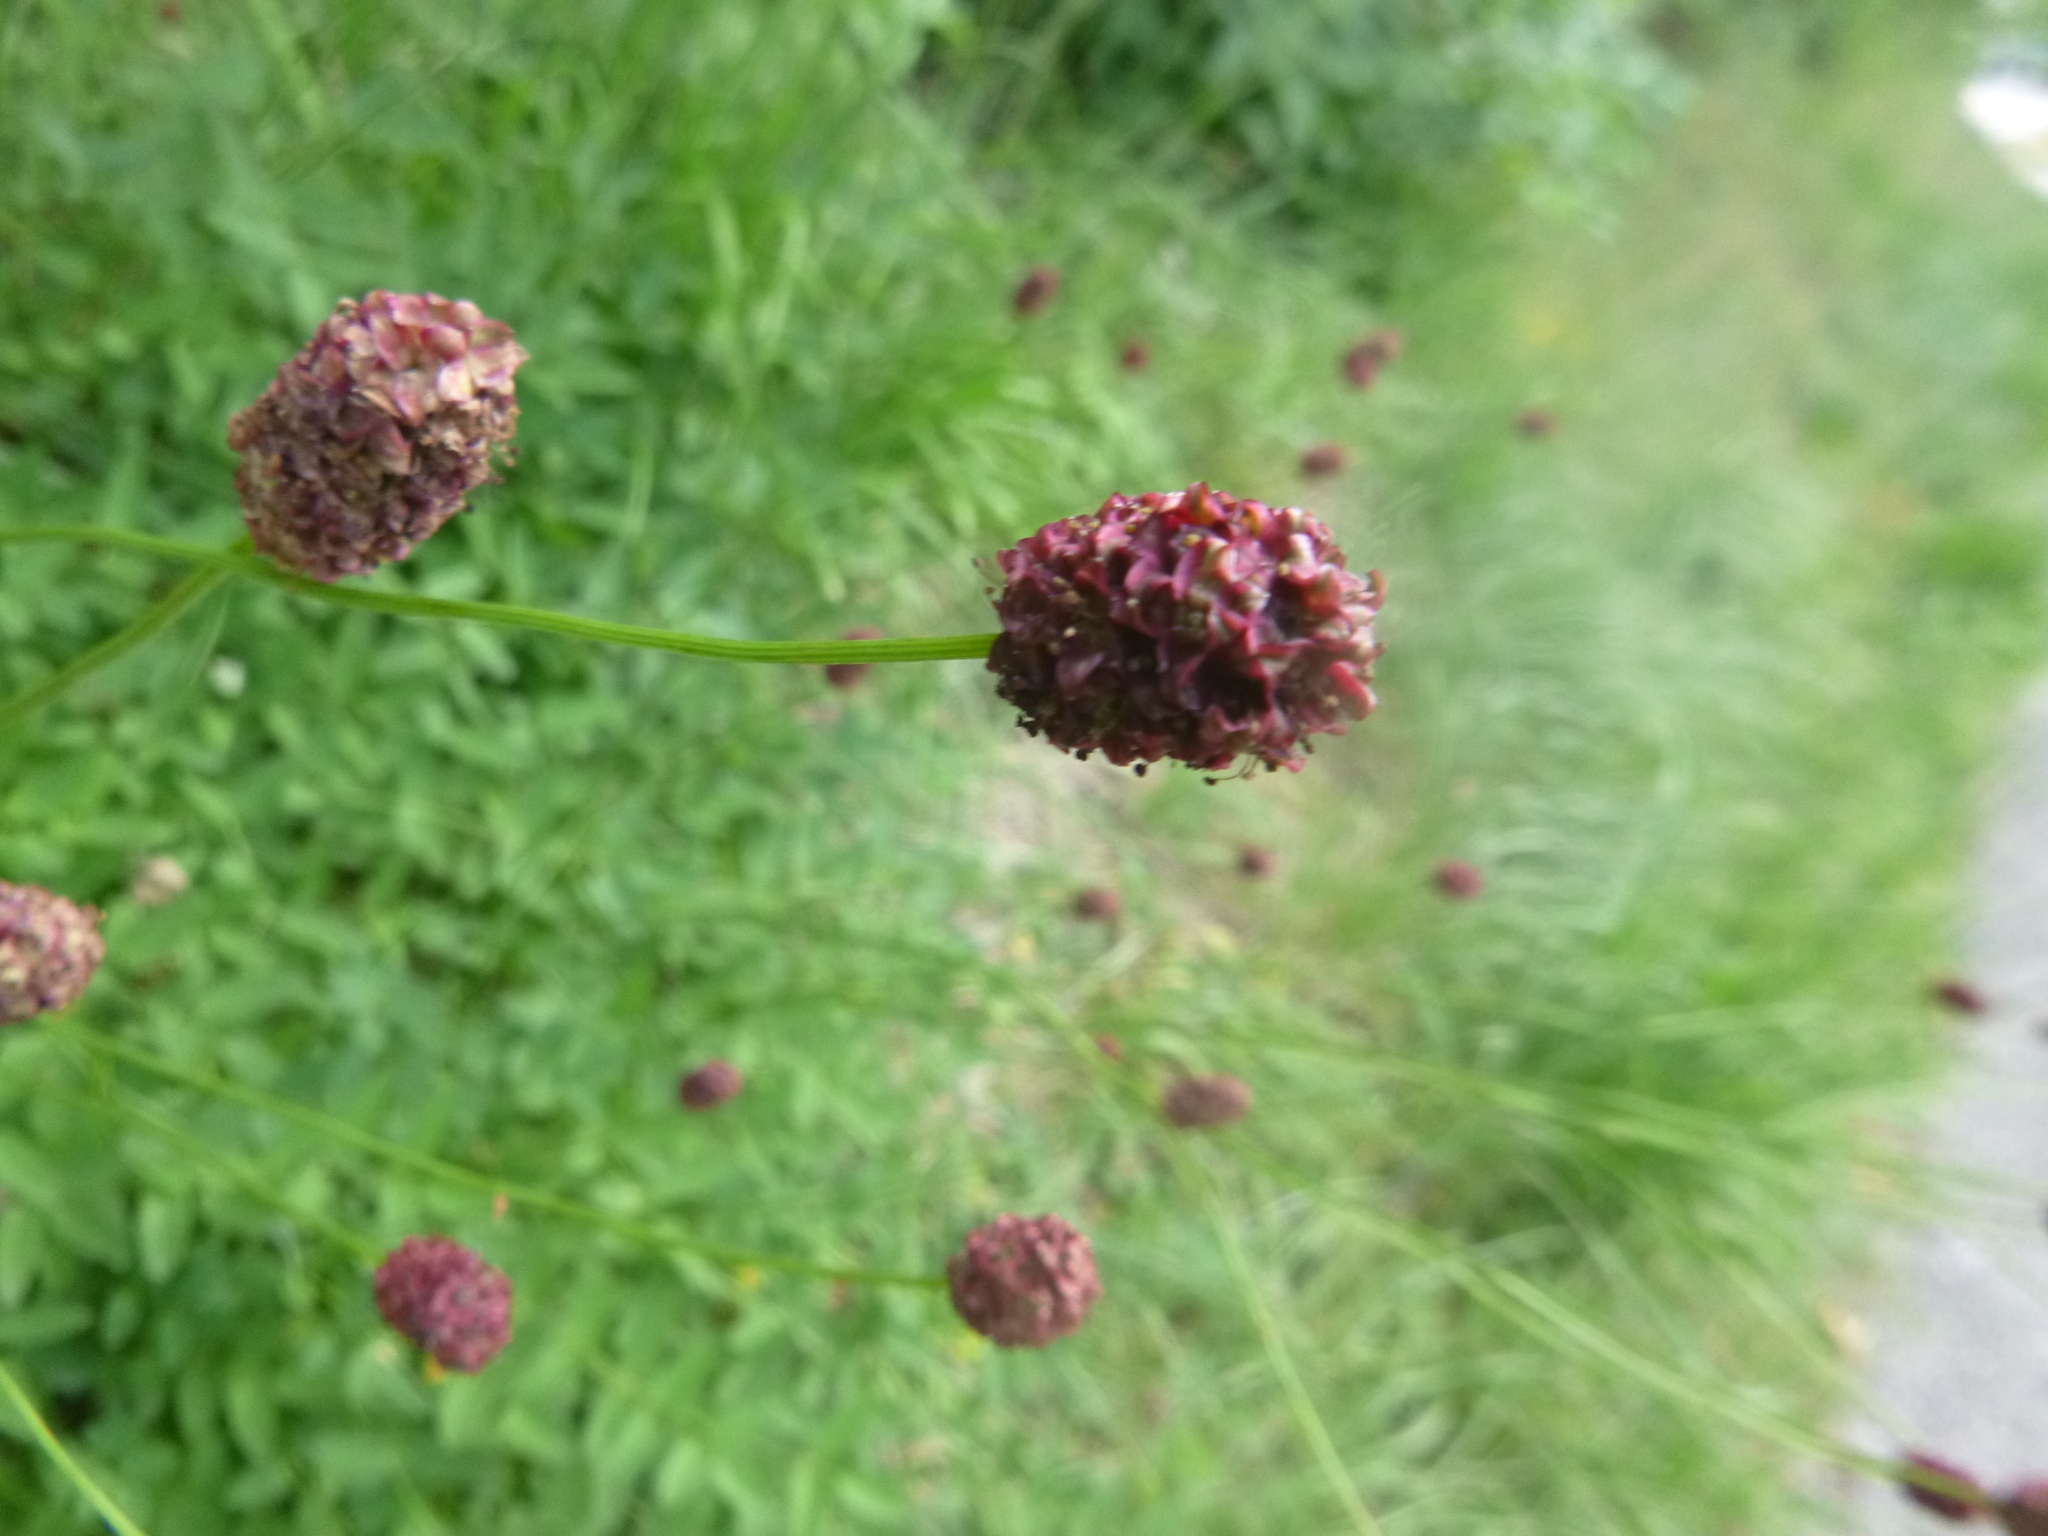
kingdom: Plantae
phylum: Tracheophyta
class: Magnoliopsida
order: Rosales
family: Rosaceae
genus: Sanguisorba
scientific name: Sanguisorba officinalis
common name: Great burnet
